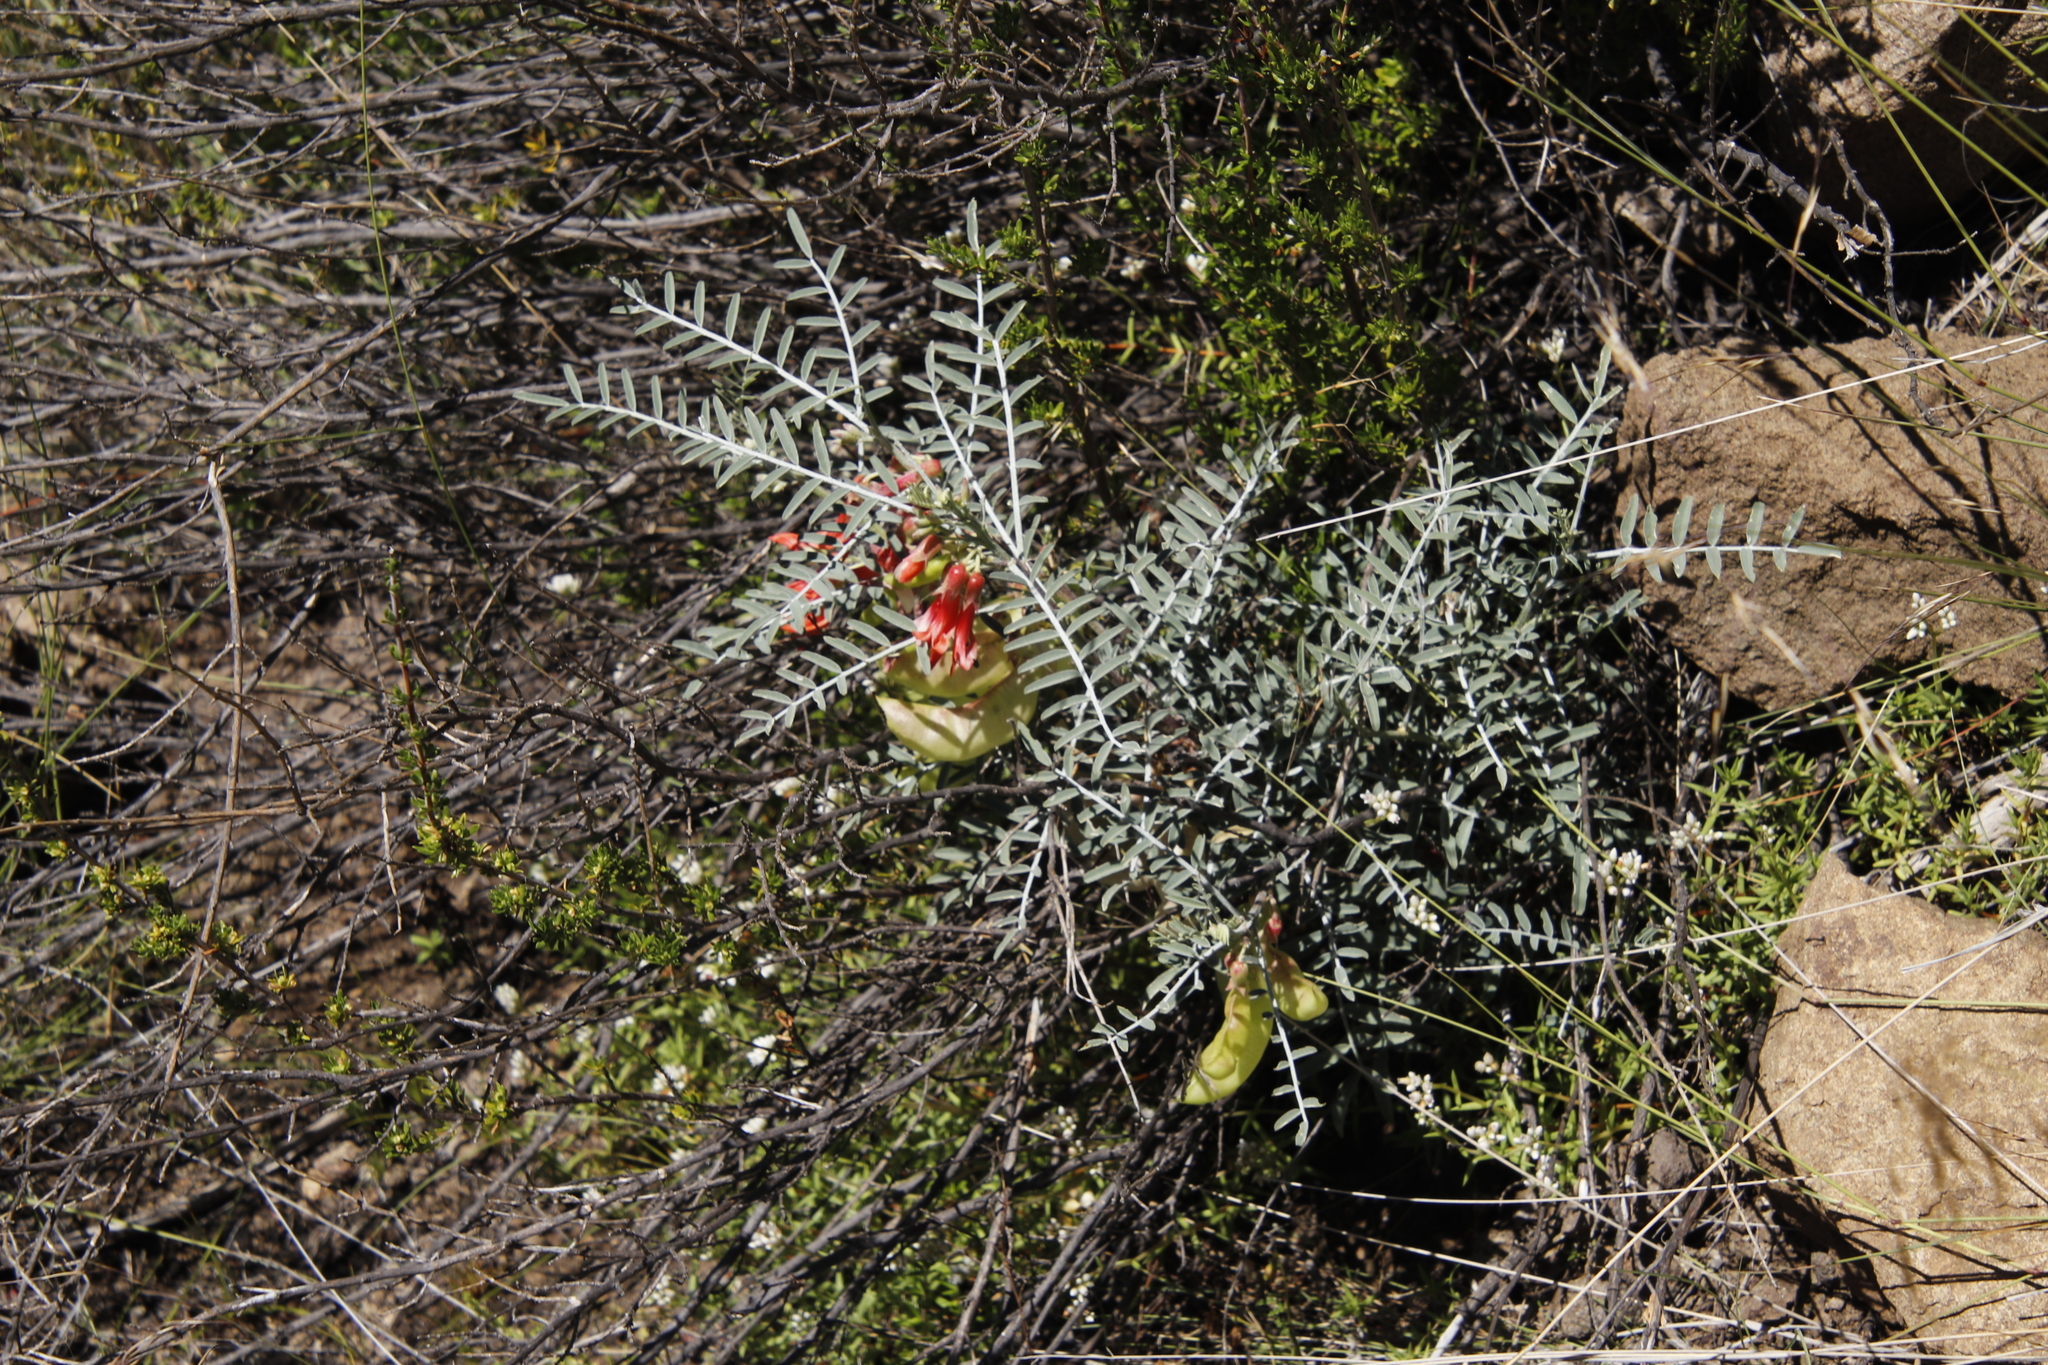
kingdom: Plantae
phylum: Tracheophyta
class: Magnoliopsida
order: Fabales
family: Fabaceae
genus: Lessertia
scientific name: Lessertia frutescens
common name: Balloon-pea
